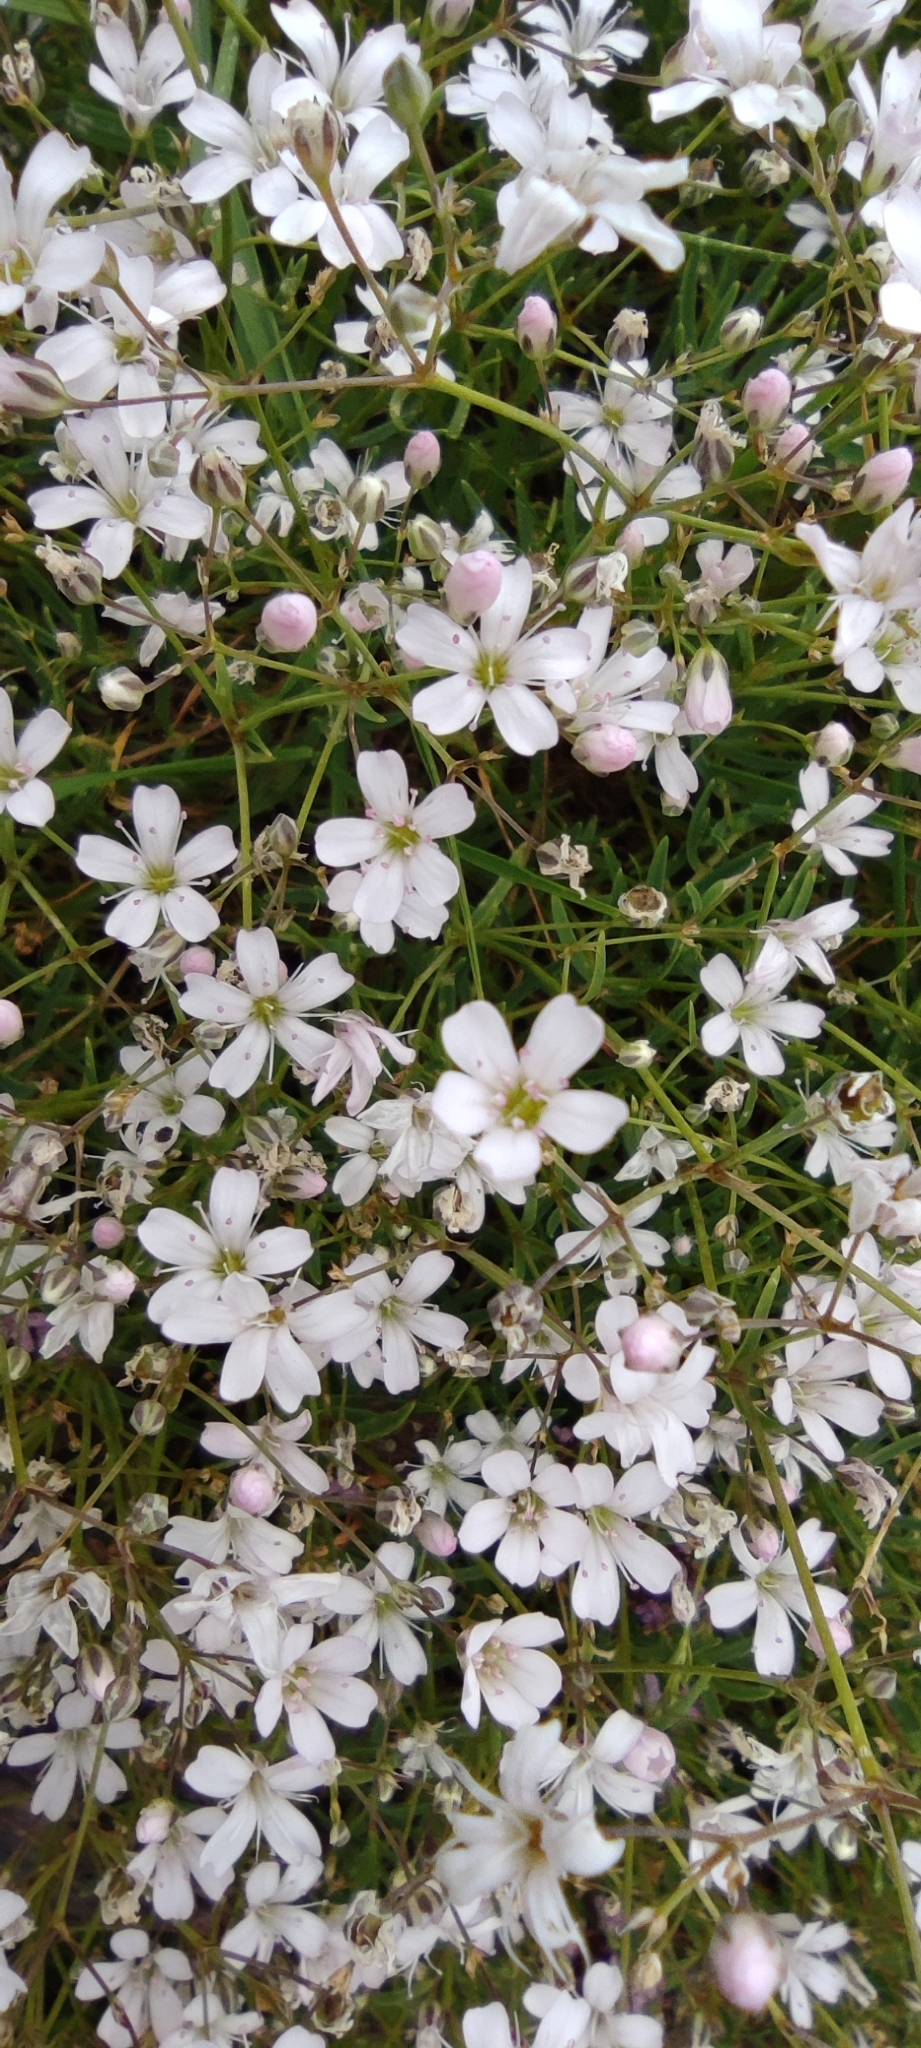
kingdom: Plantae
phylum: Tracheophyta
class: Magnoliopsida
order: Caryophyllales
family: Caryophyllaceae
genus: Gypsophila
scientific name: Gypsophila repens
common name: Creeping baby's-breath
